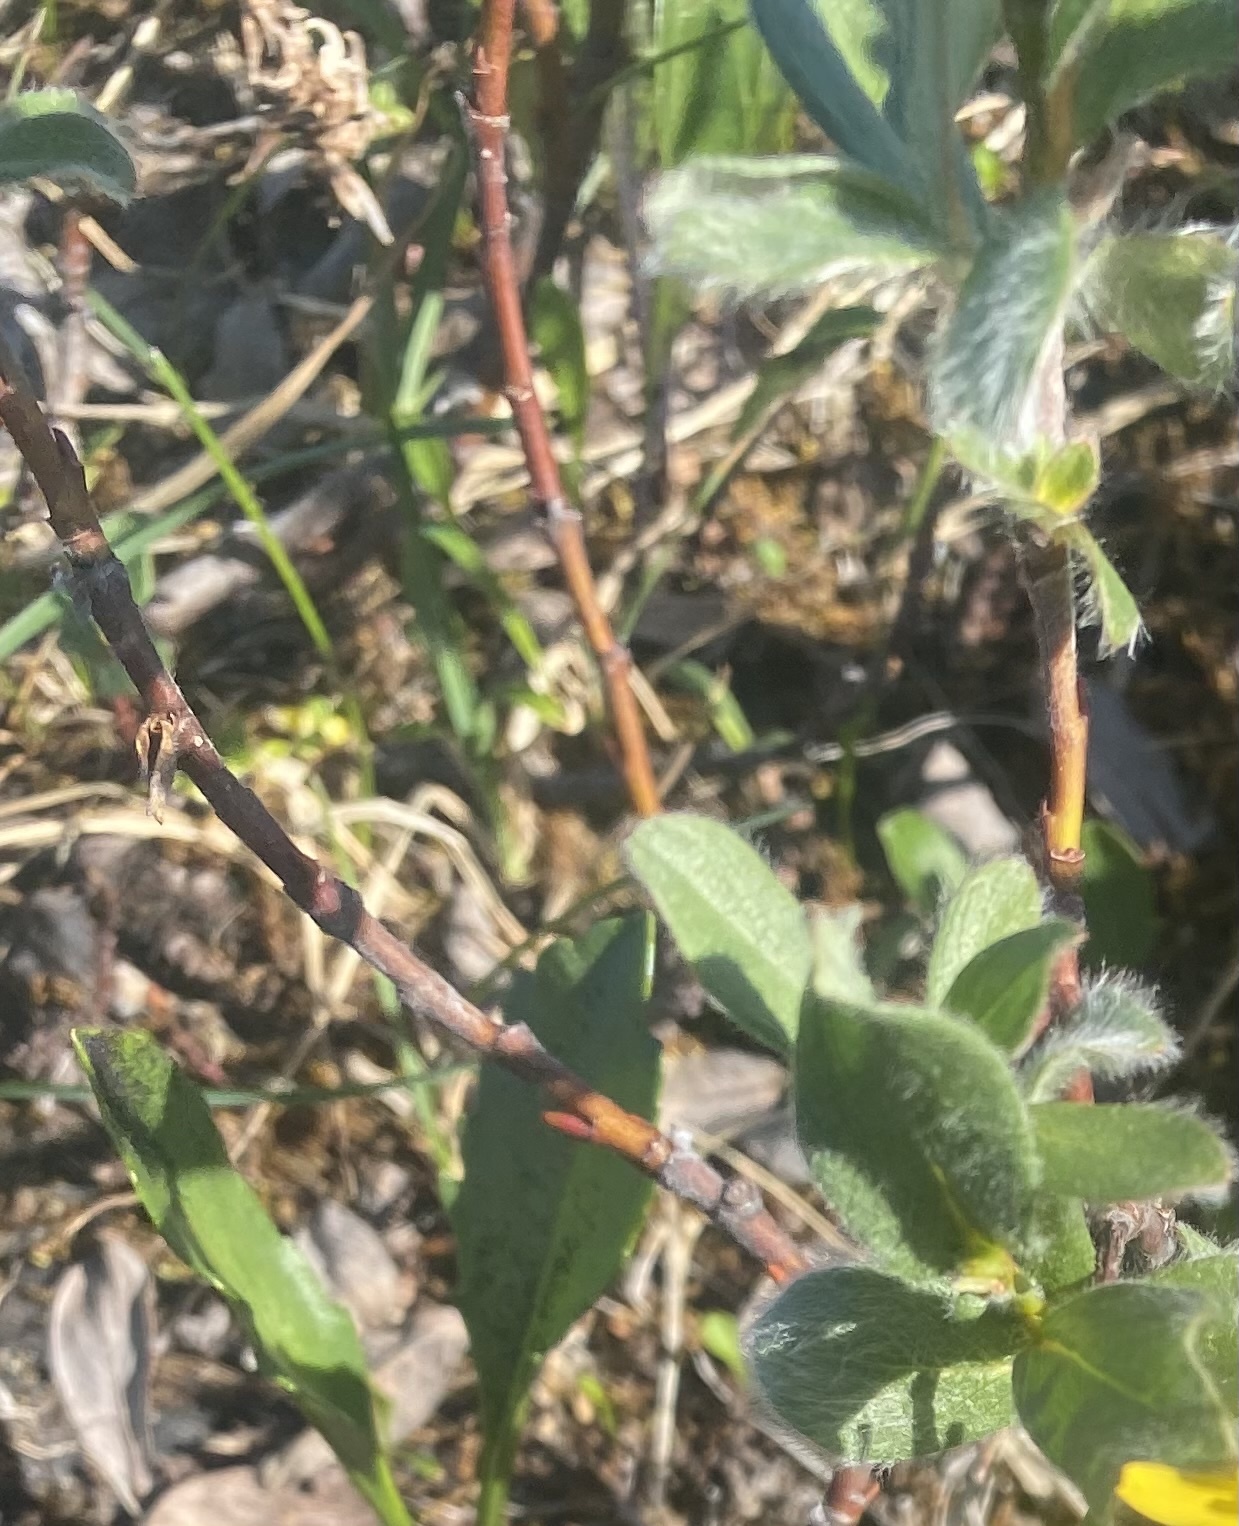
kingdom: Plantae
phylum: Tracheophyta
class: Magnoliopsida
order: Malpighiales
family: Salicaceae
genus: Salix
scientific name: Salix glauca
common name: Glaucous willow
